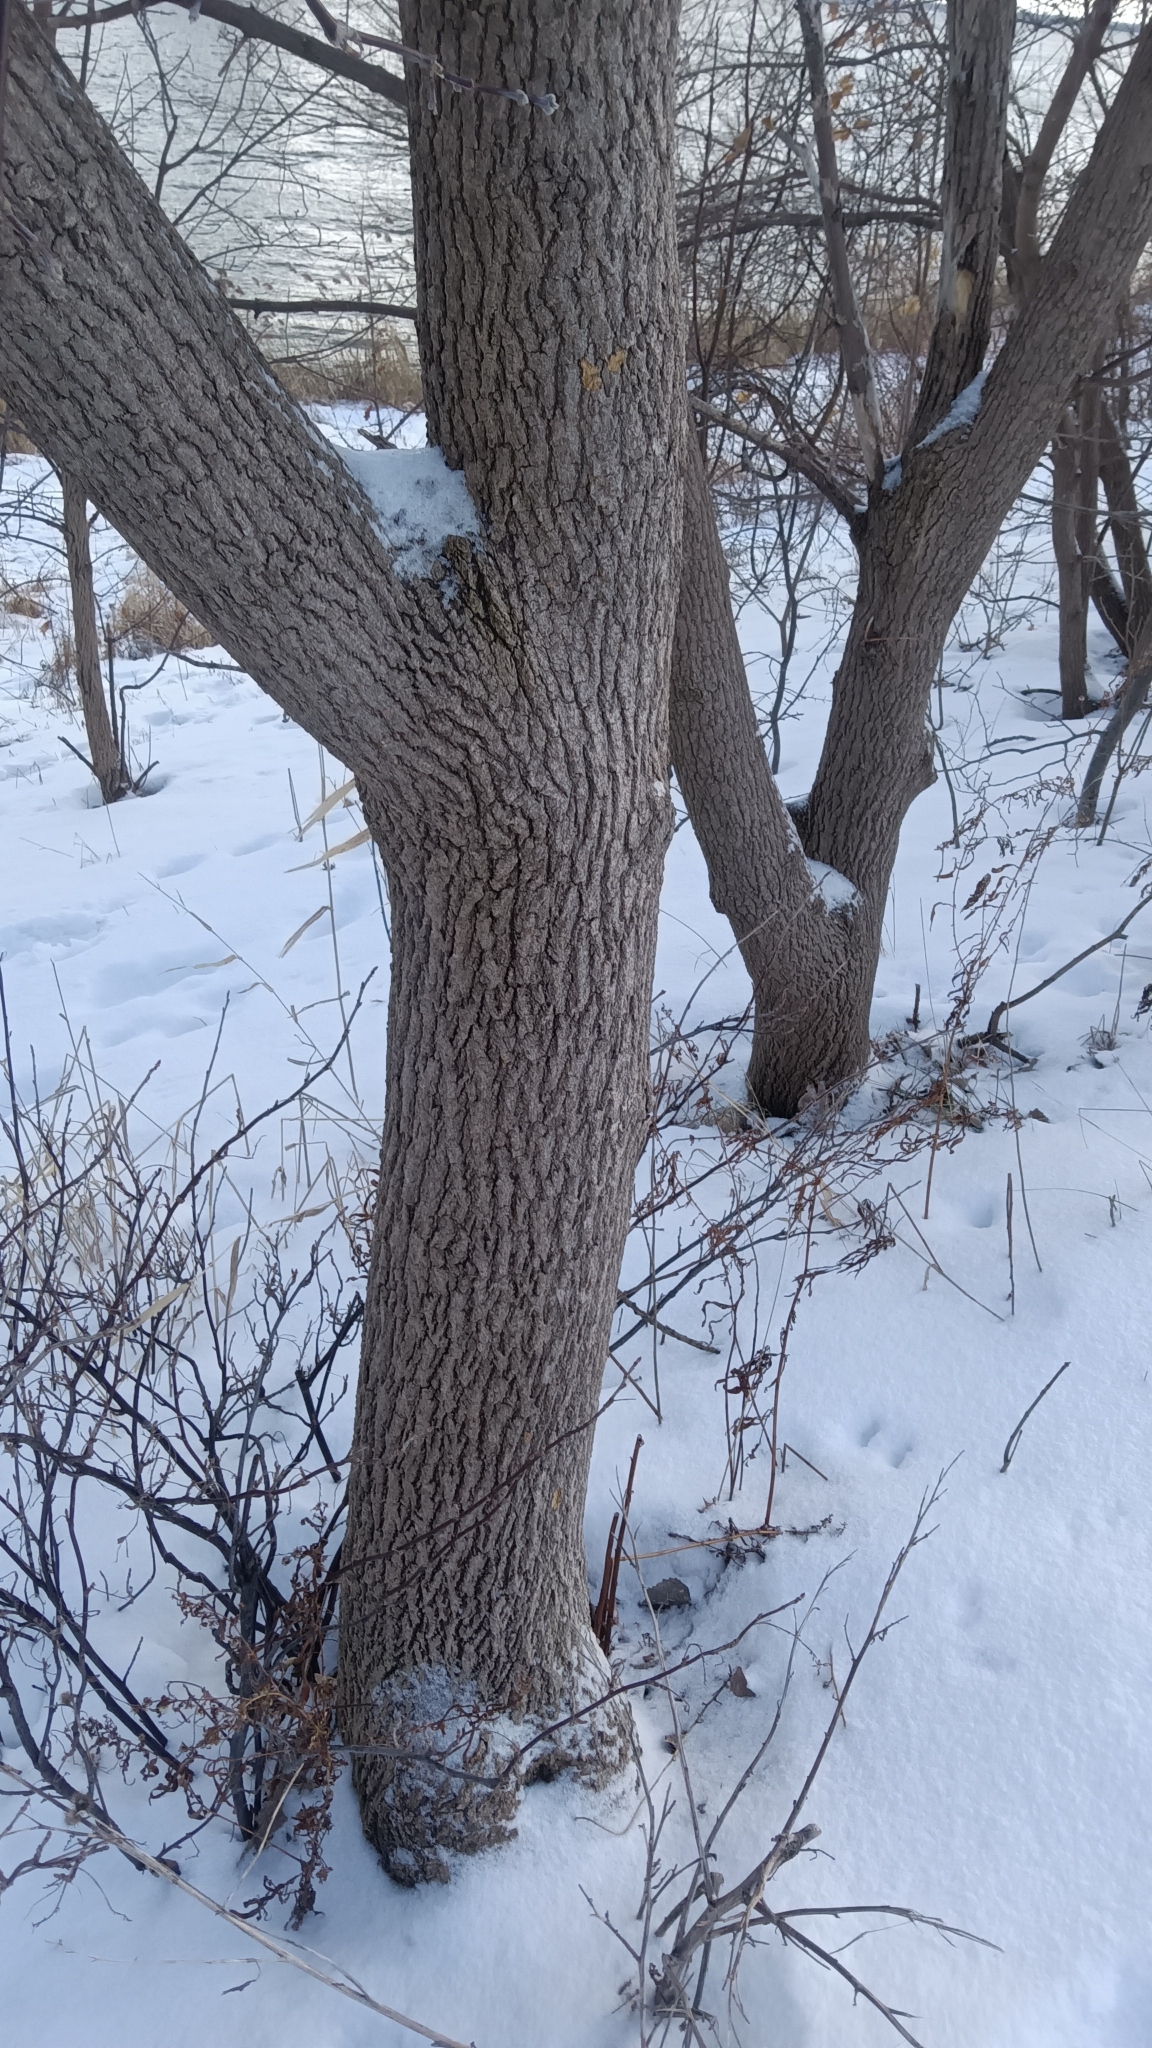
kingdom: Plantae
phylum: Tracheophyta
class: Magnoliopsida
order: Sapindales
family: Sapindaceae
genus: Acer
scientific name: Acer negundo
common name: Ashleaf maple
